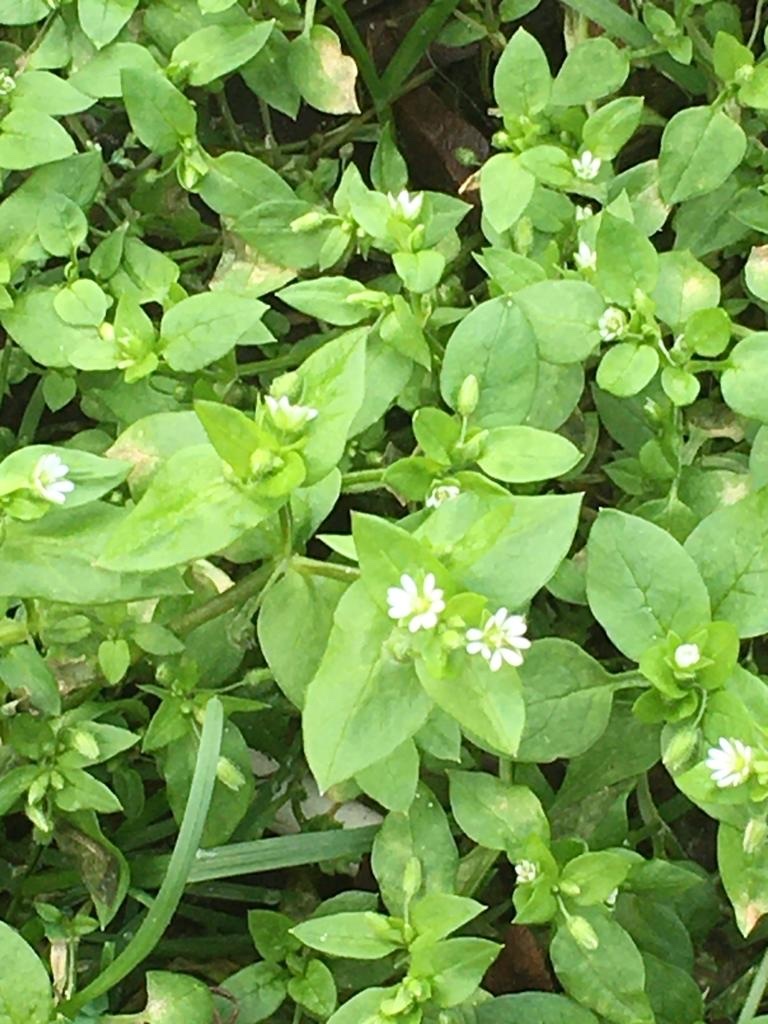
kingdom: Plantae
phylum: Tracheophyta
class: Magnoliopsida
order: Caryophyllales
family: Caryophyllaceae
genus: Stellaria
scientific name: Stellaria media
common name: Common chickweed
